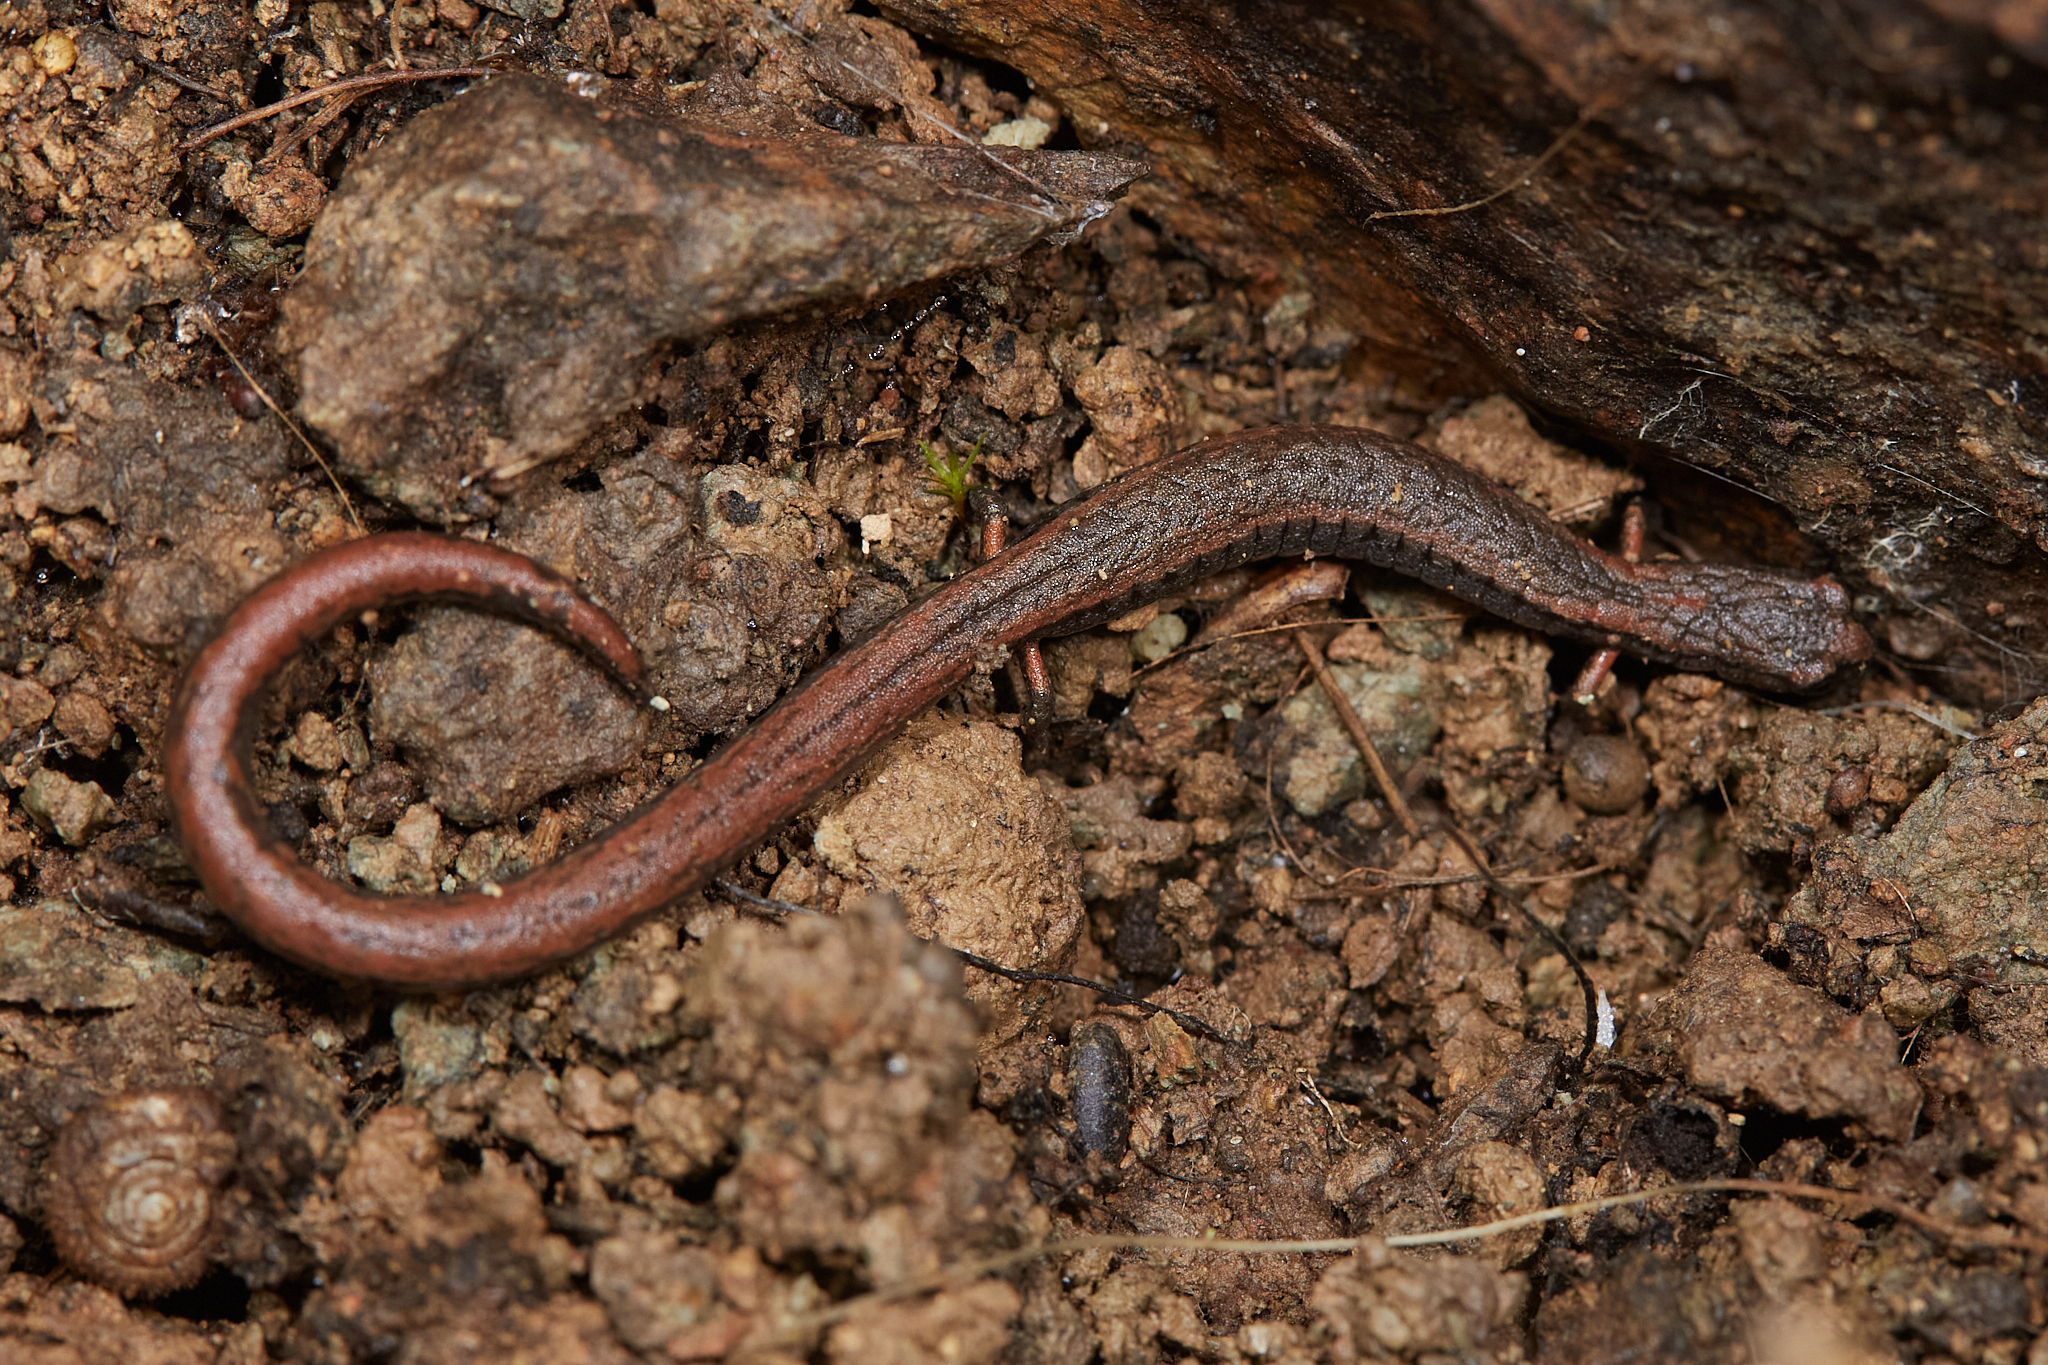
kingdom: Animalia
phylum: Chordata
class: Amphibia
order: Caudata
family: Plethodontidae
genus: Batrachoseps
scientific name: Batrachoseps attenuatus
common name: California slender salamander
